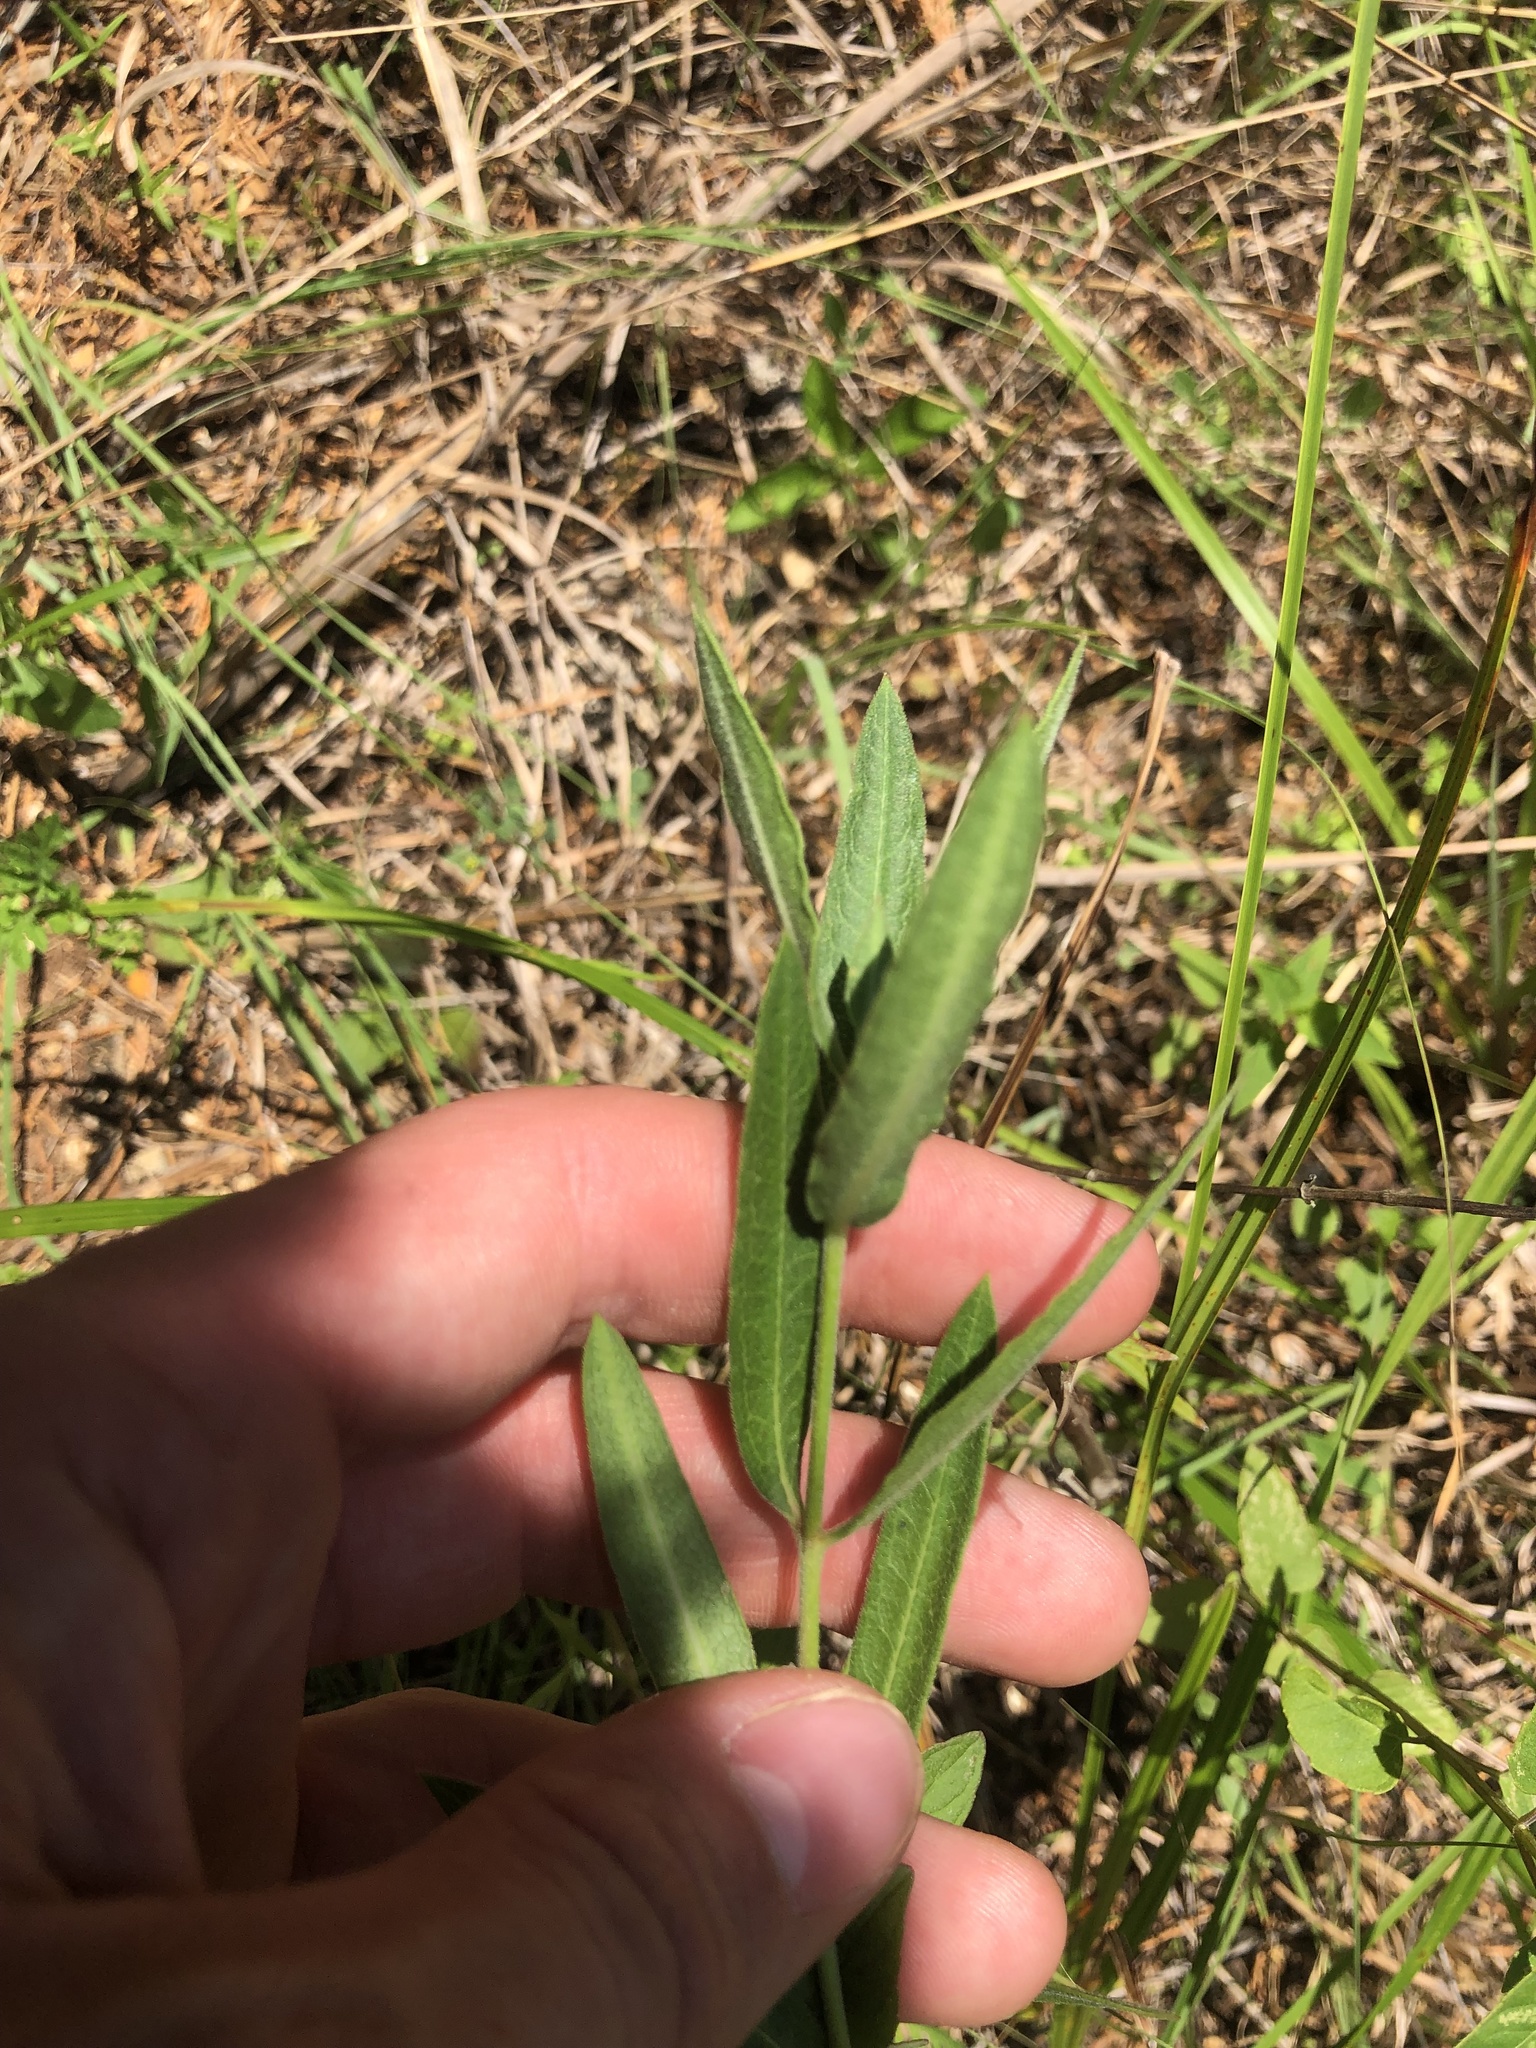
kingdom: Plantae
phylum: Tracheophyta
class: Magnoliopsida
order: Gentianales
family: Apocynaceae
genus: Asclepias
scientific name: Asclepias viridiflora
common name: Green comet milkweed
